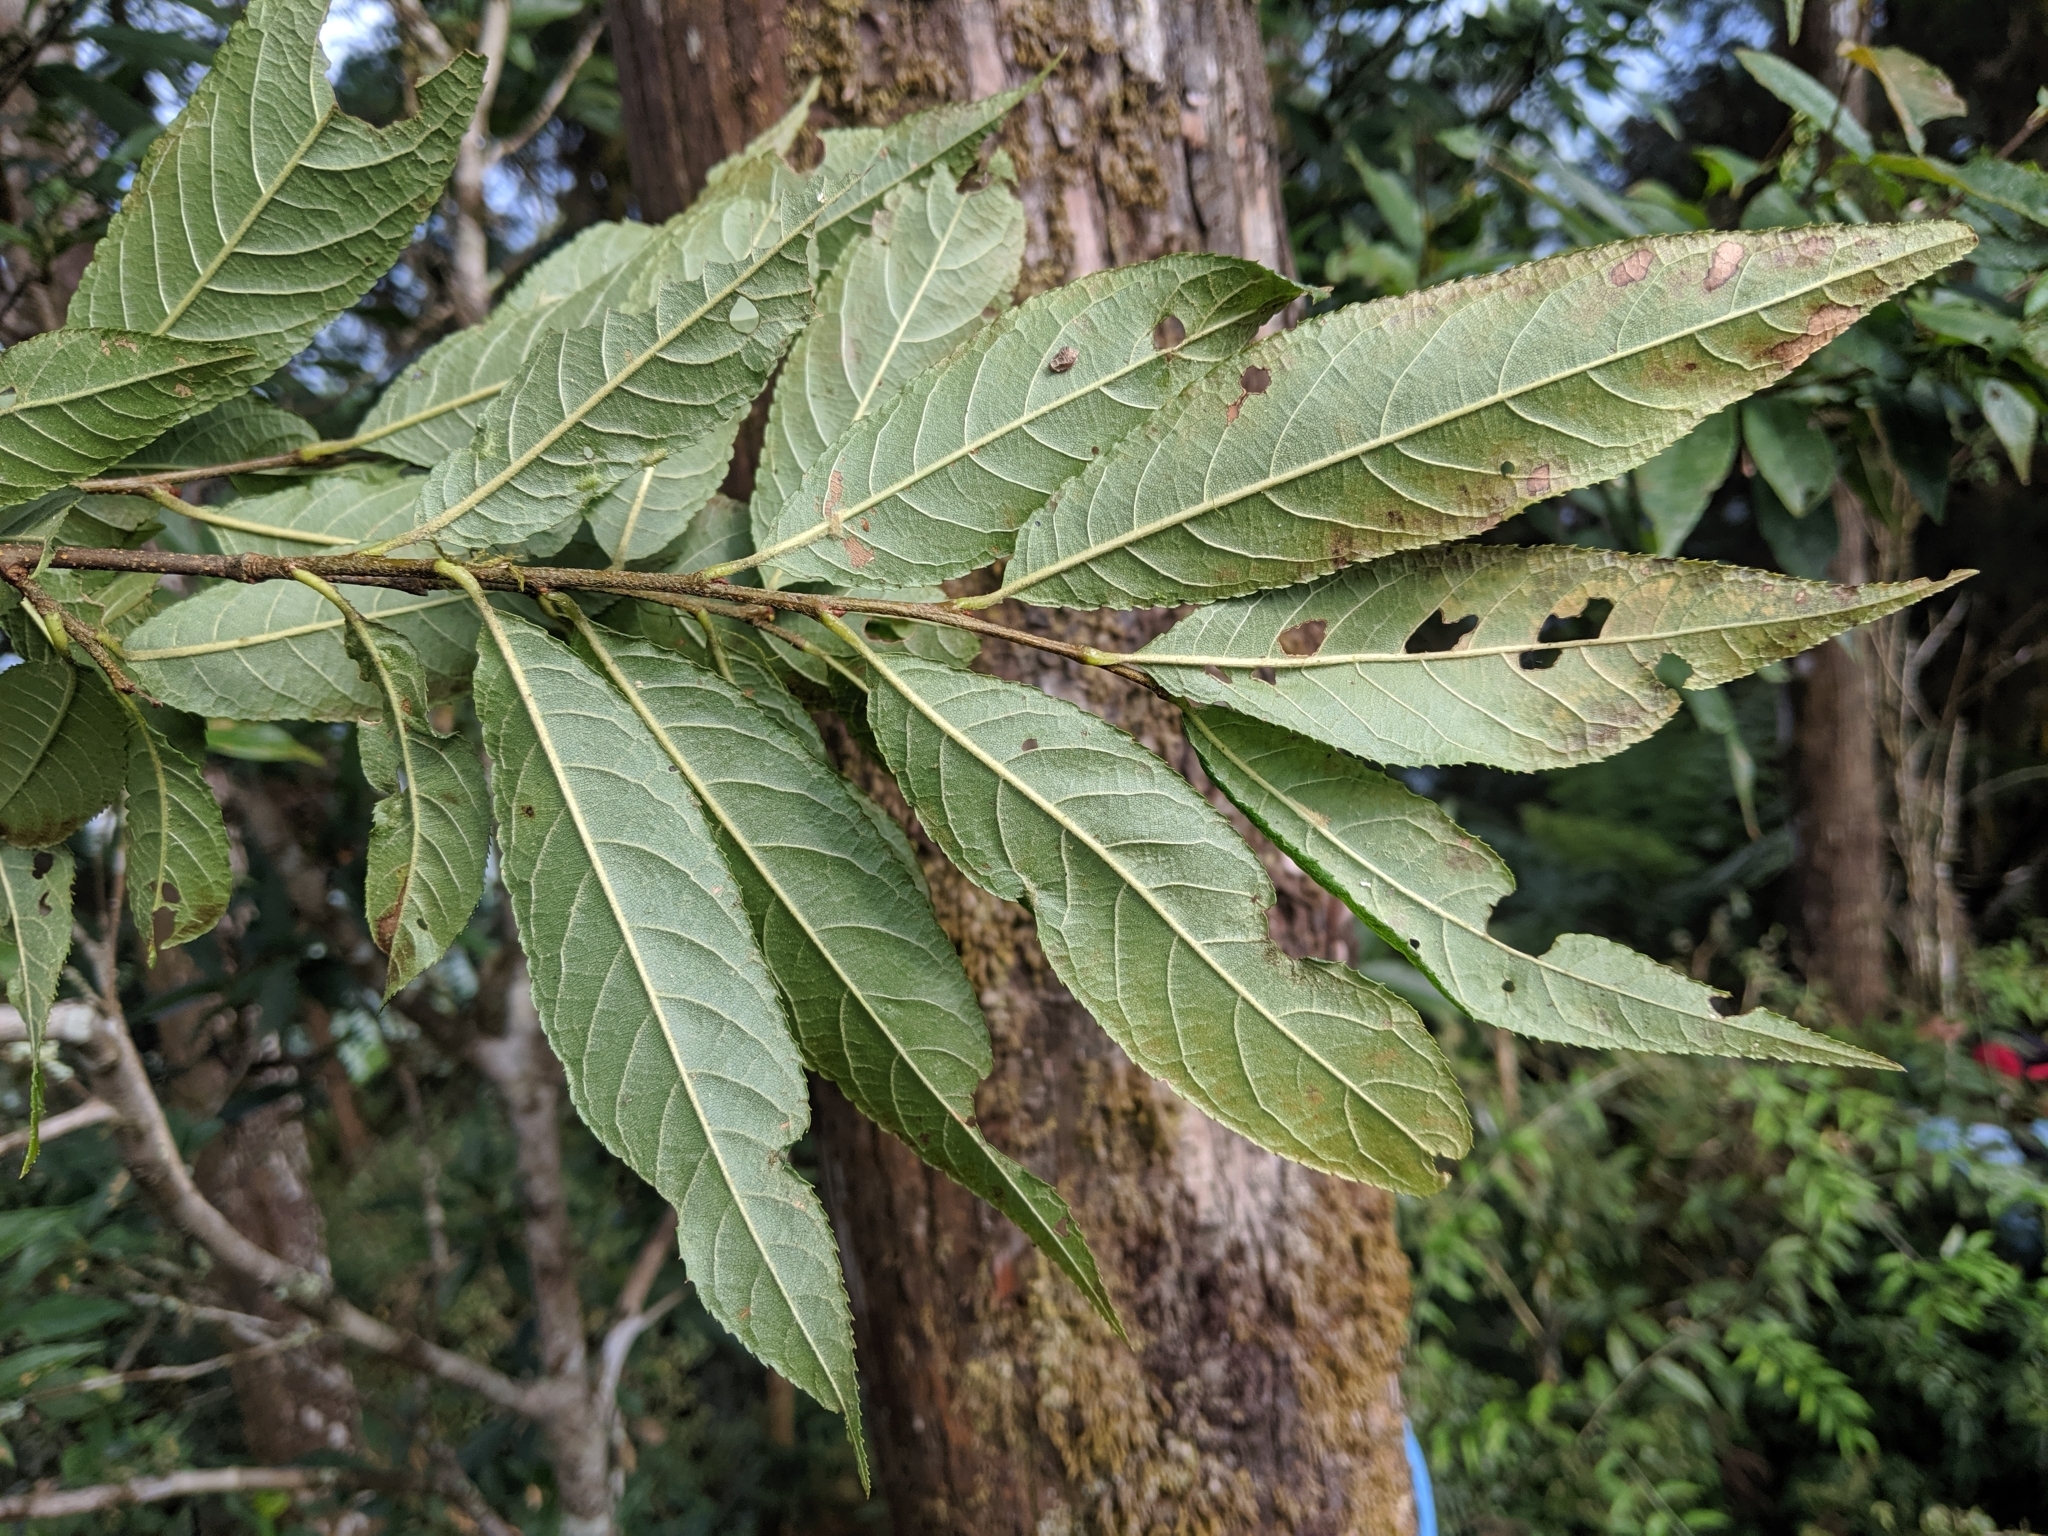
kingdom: Plantae
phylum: Tracheophyta
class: Magnoliopsida
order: Rosales
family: Rosaceae
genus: Pourthiaea
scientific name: Pourthiaea beauverdiana
